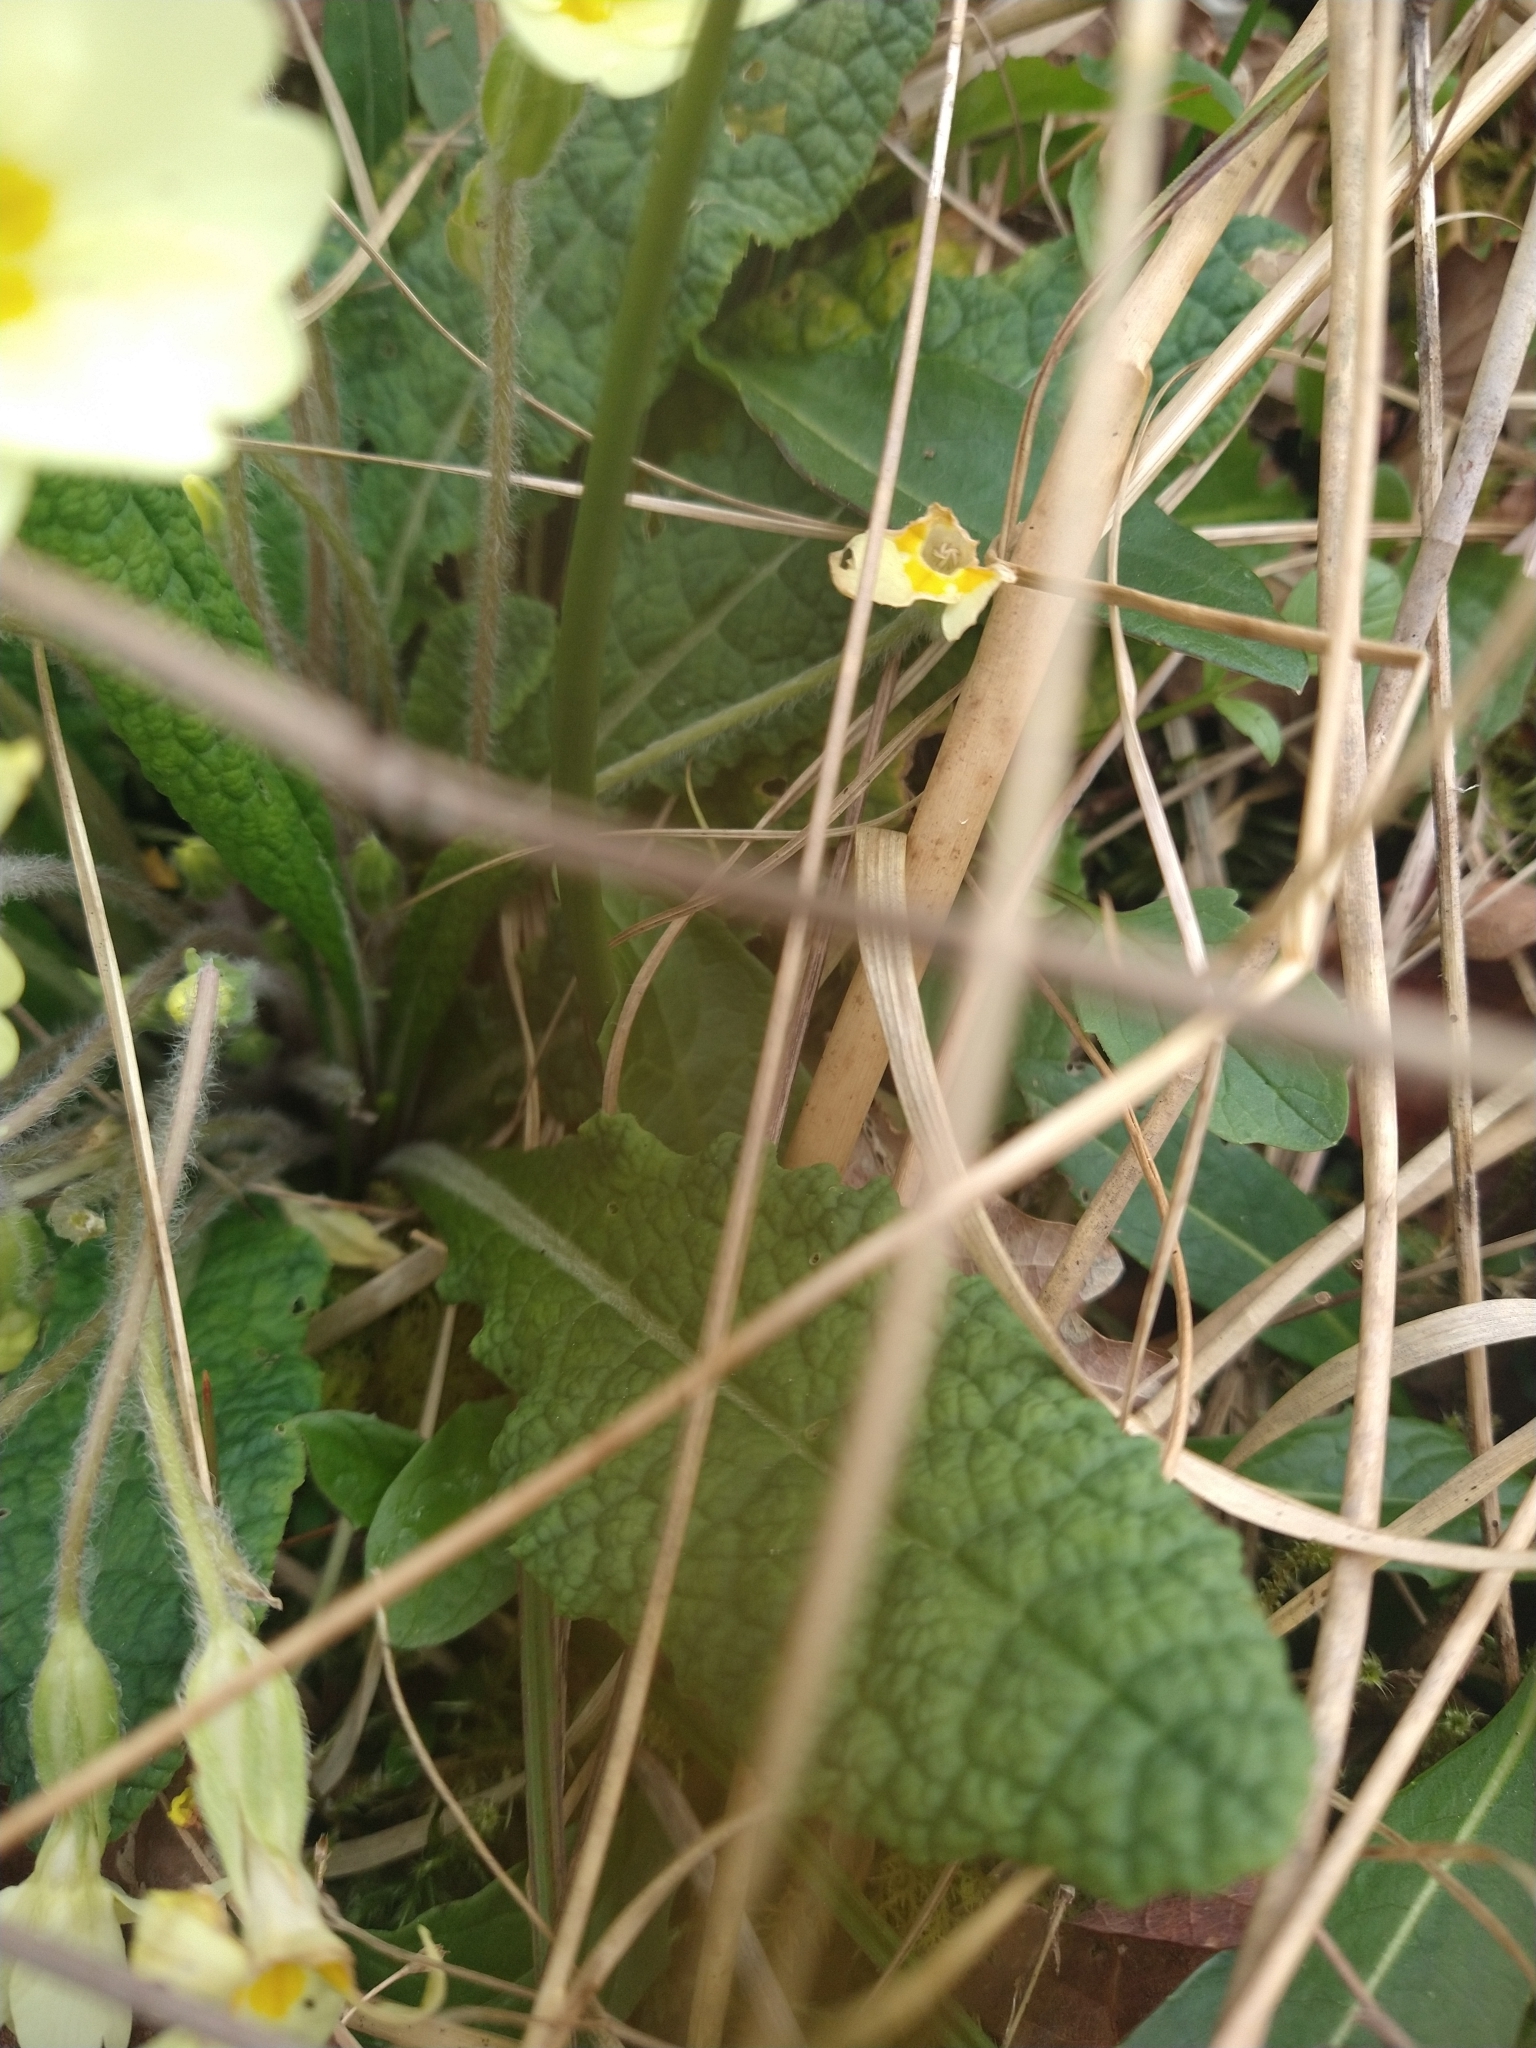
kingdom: Plantae
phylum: Tracheophyta
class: Magnoliopsida
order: Ericales
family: Primulaceae
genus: Primula
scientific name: Primula vulgaris
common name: Primrose
